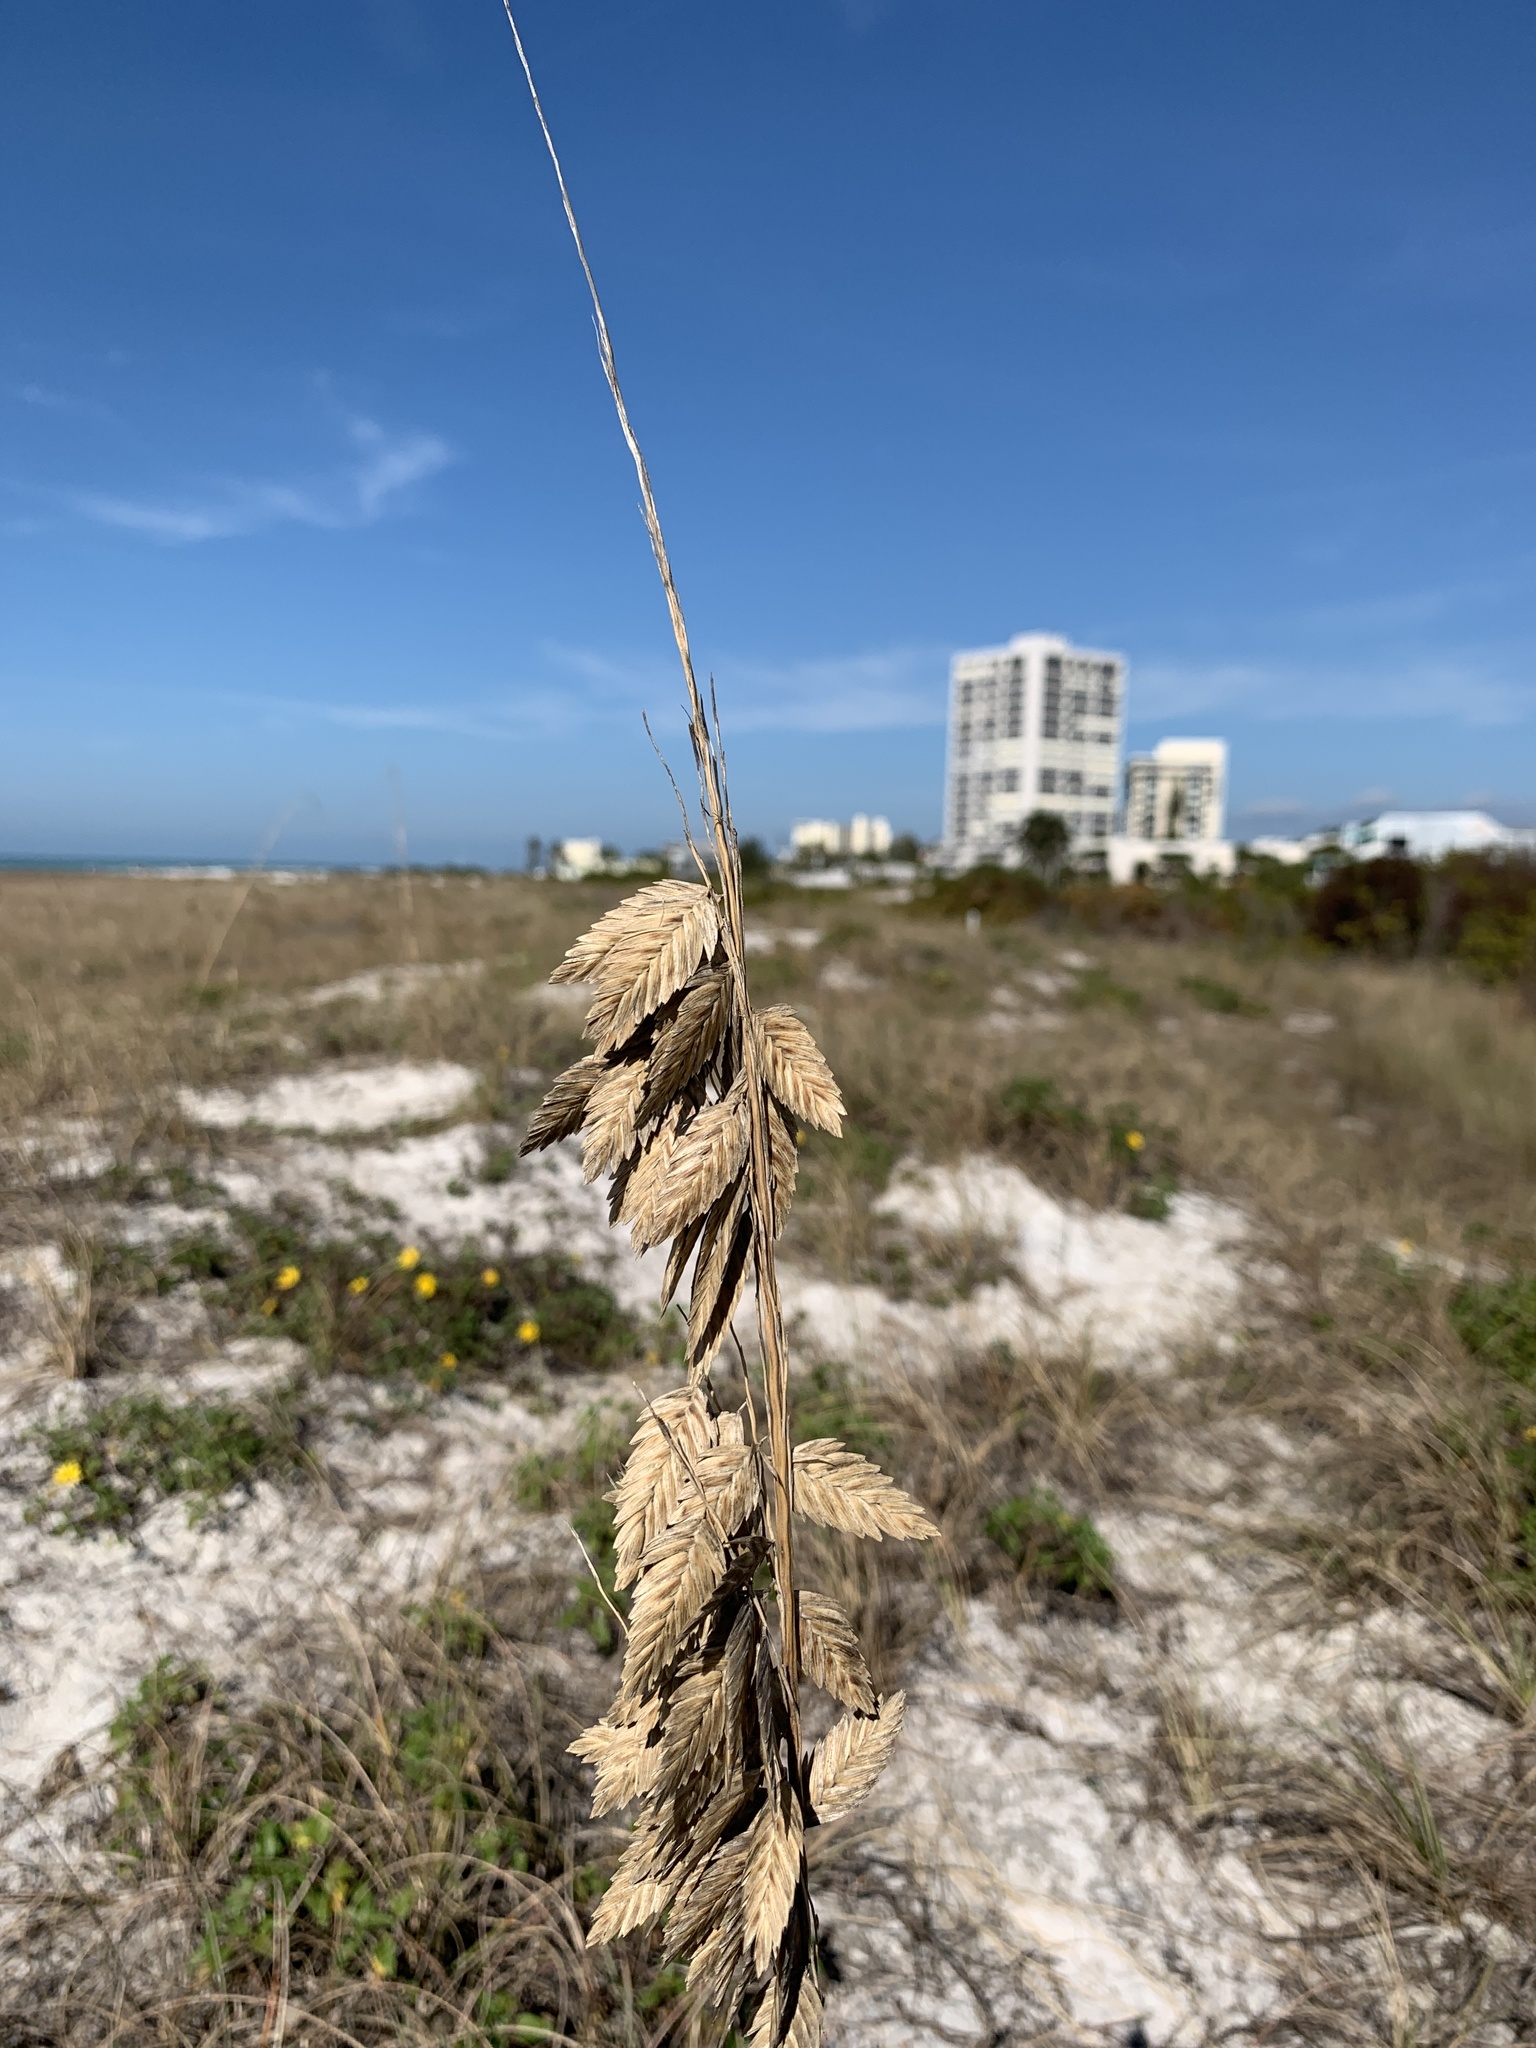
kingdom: Plantae
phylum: Tracheophyta
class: Liliopsida
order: Poales
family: Poaceae
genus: Uniola
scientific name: Uniola paniculata
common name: Seaside-oats
